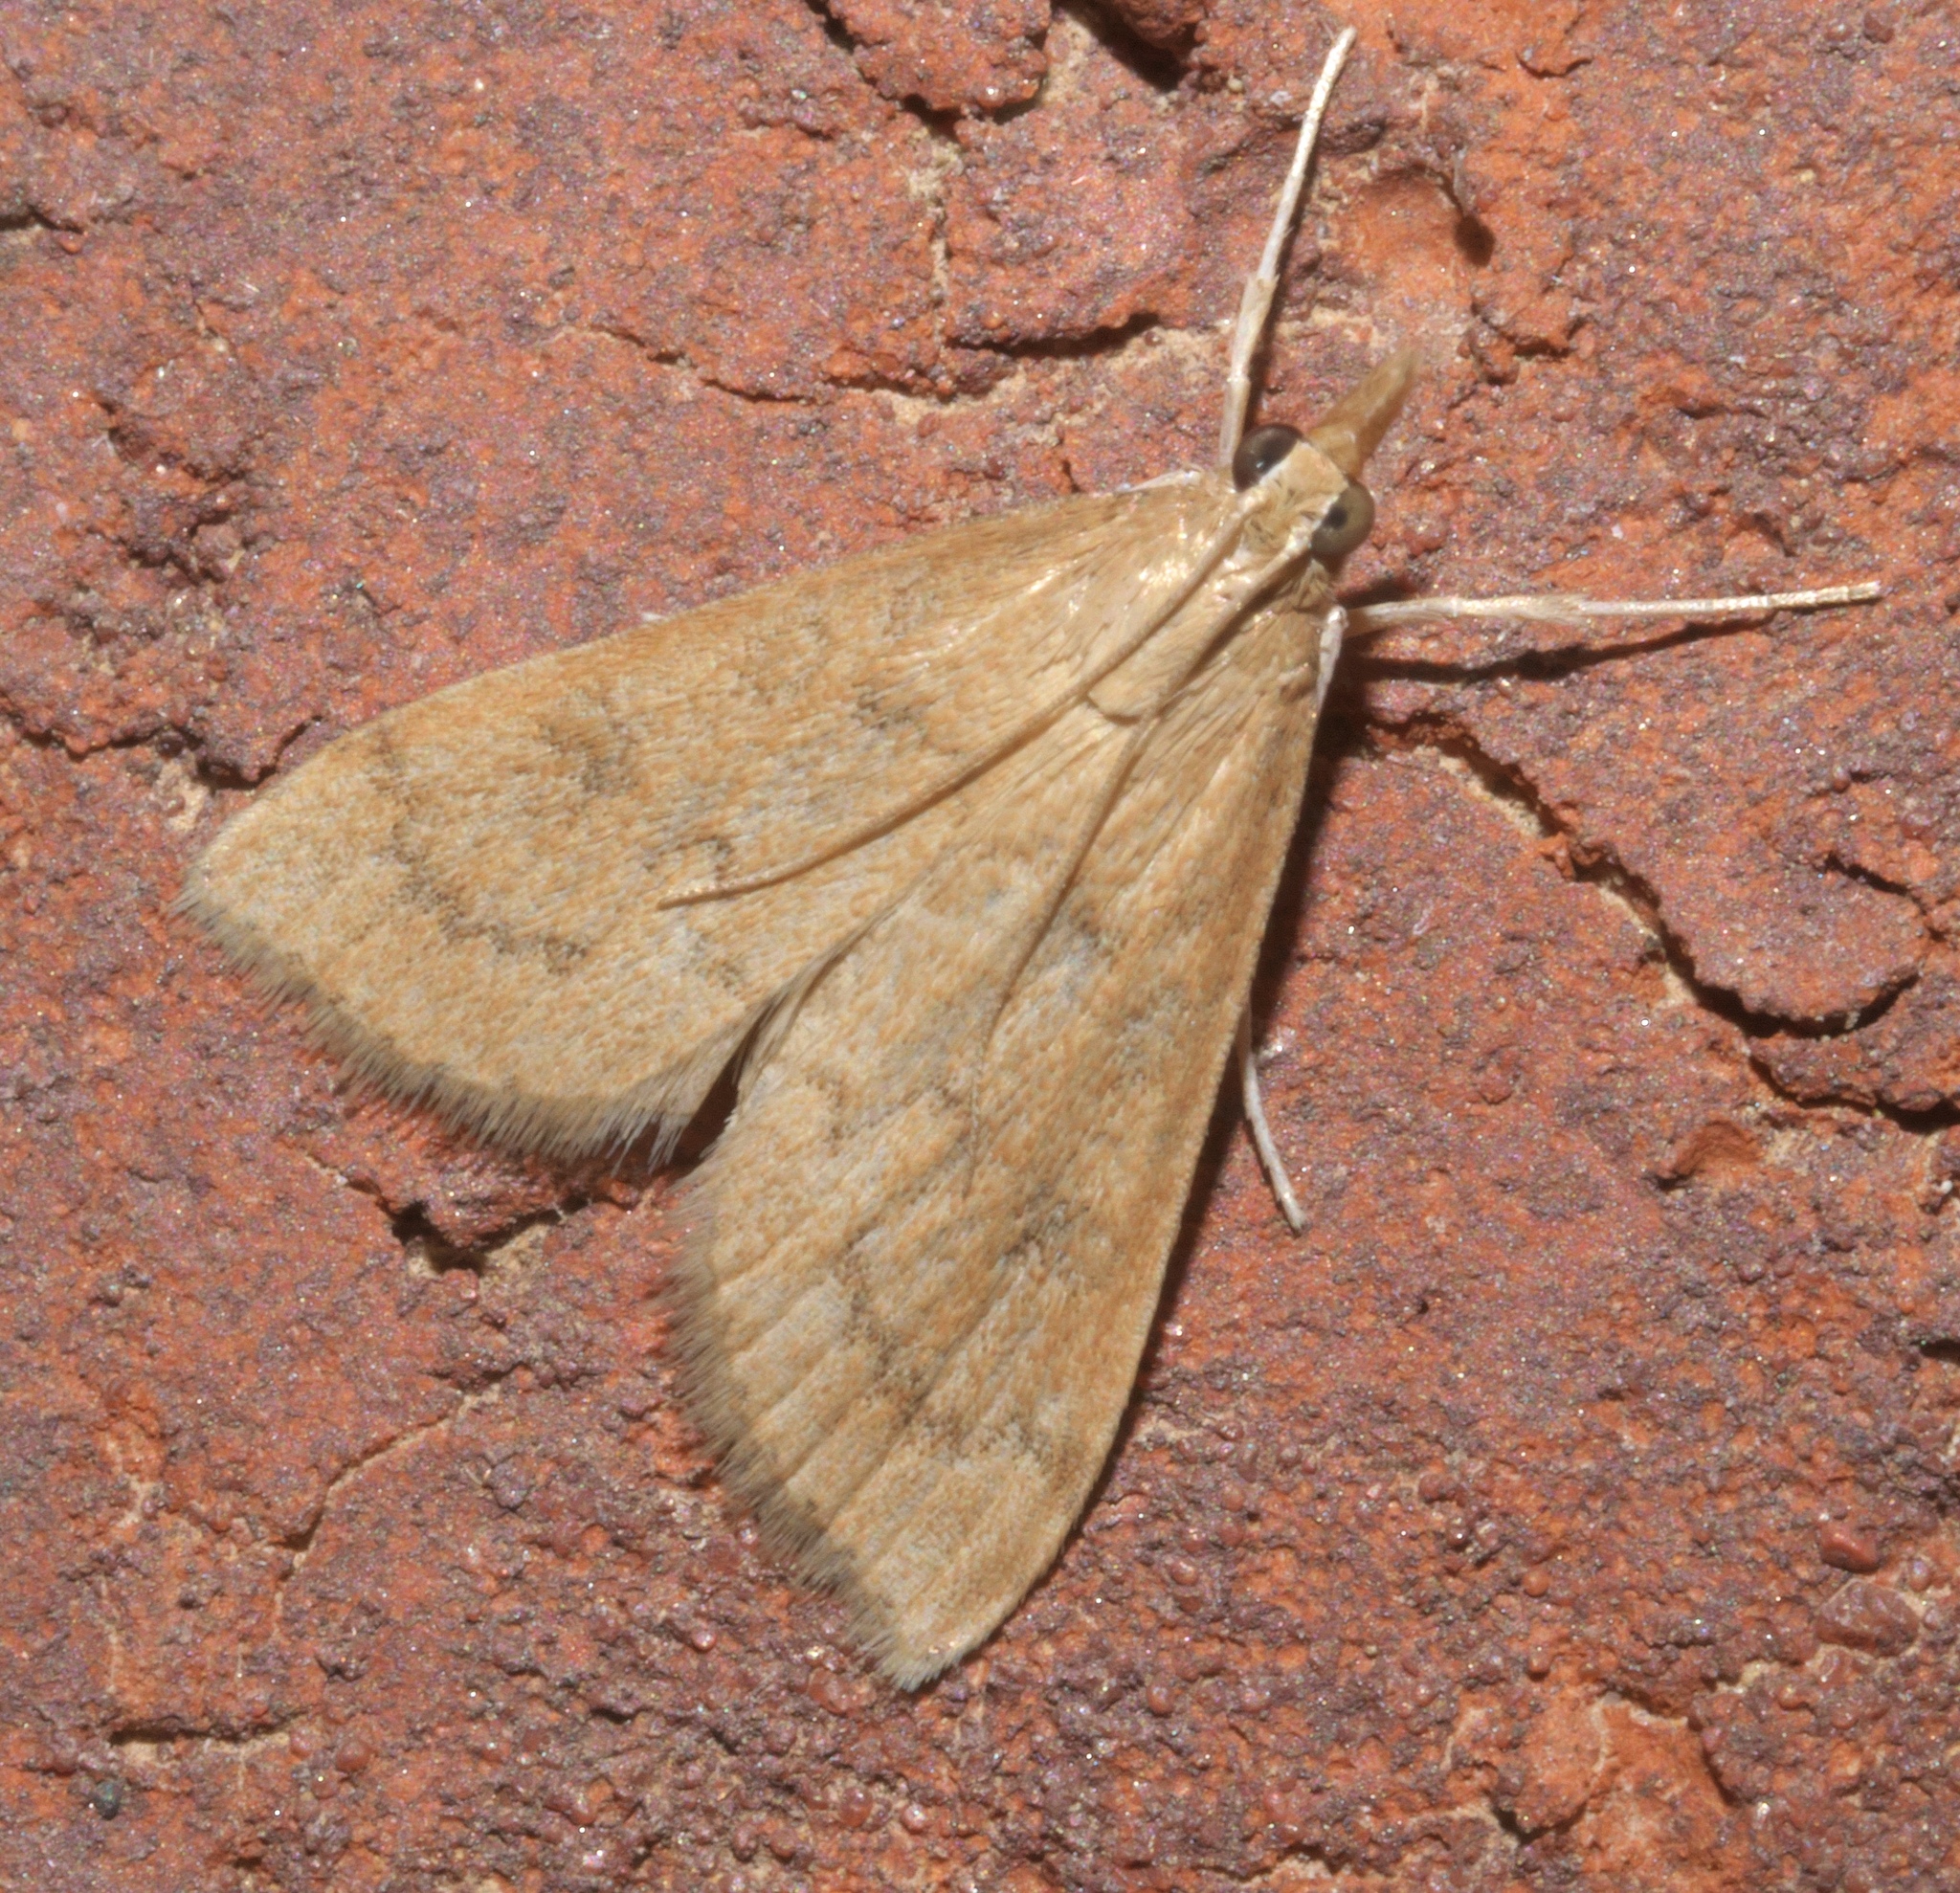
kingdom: Animalia
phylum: Arthropoda
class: Insecta
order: Lepidoptera
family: Crambidae
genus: Udea
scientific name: Udea rubigalis
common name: Celery leaftier moth
